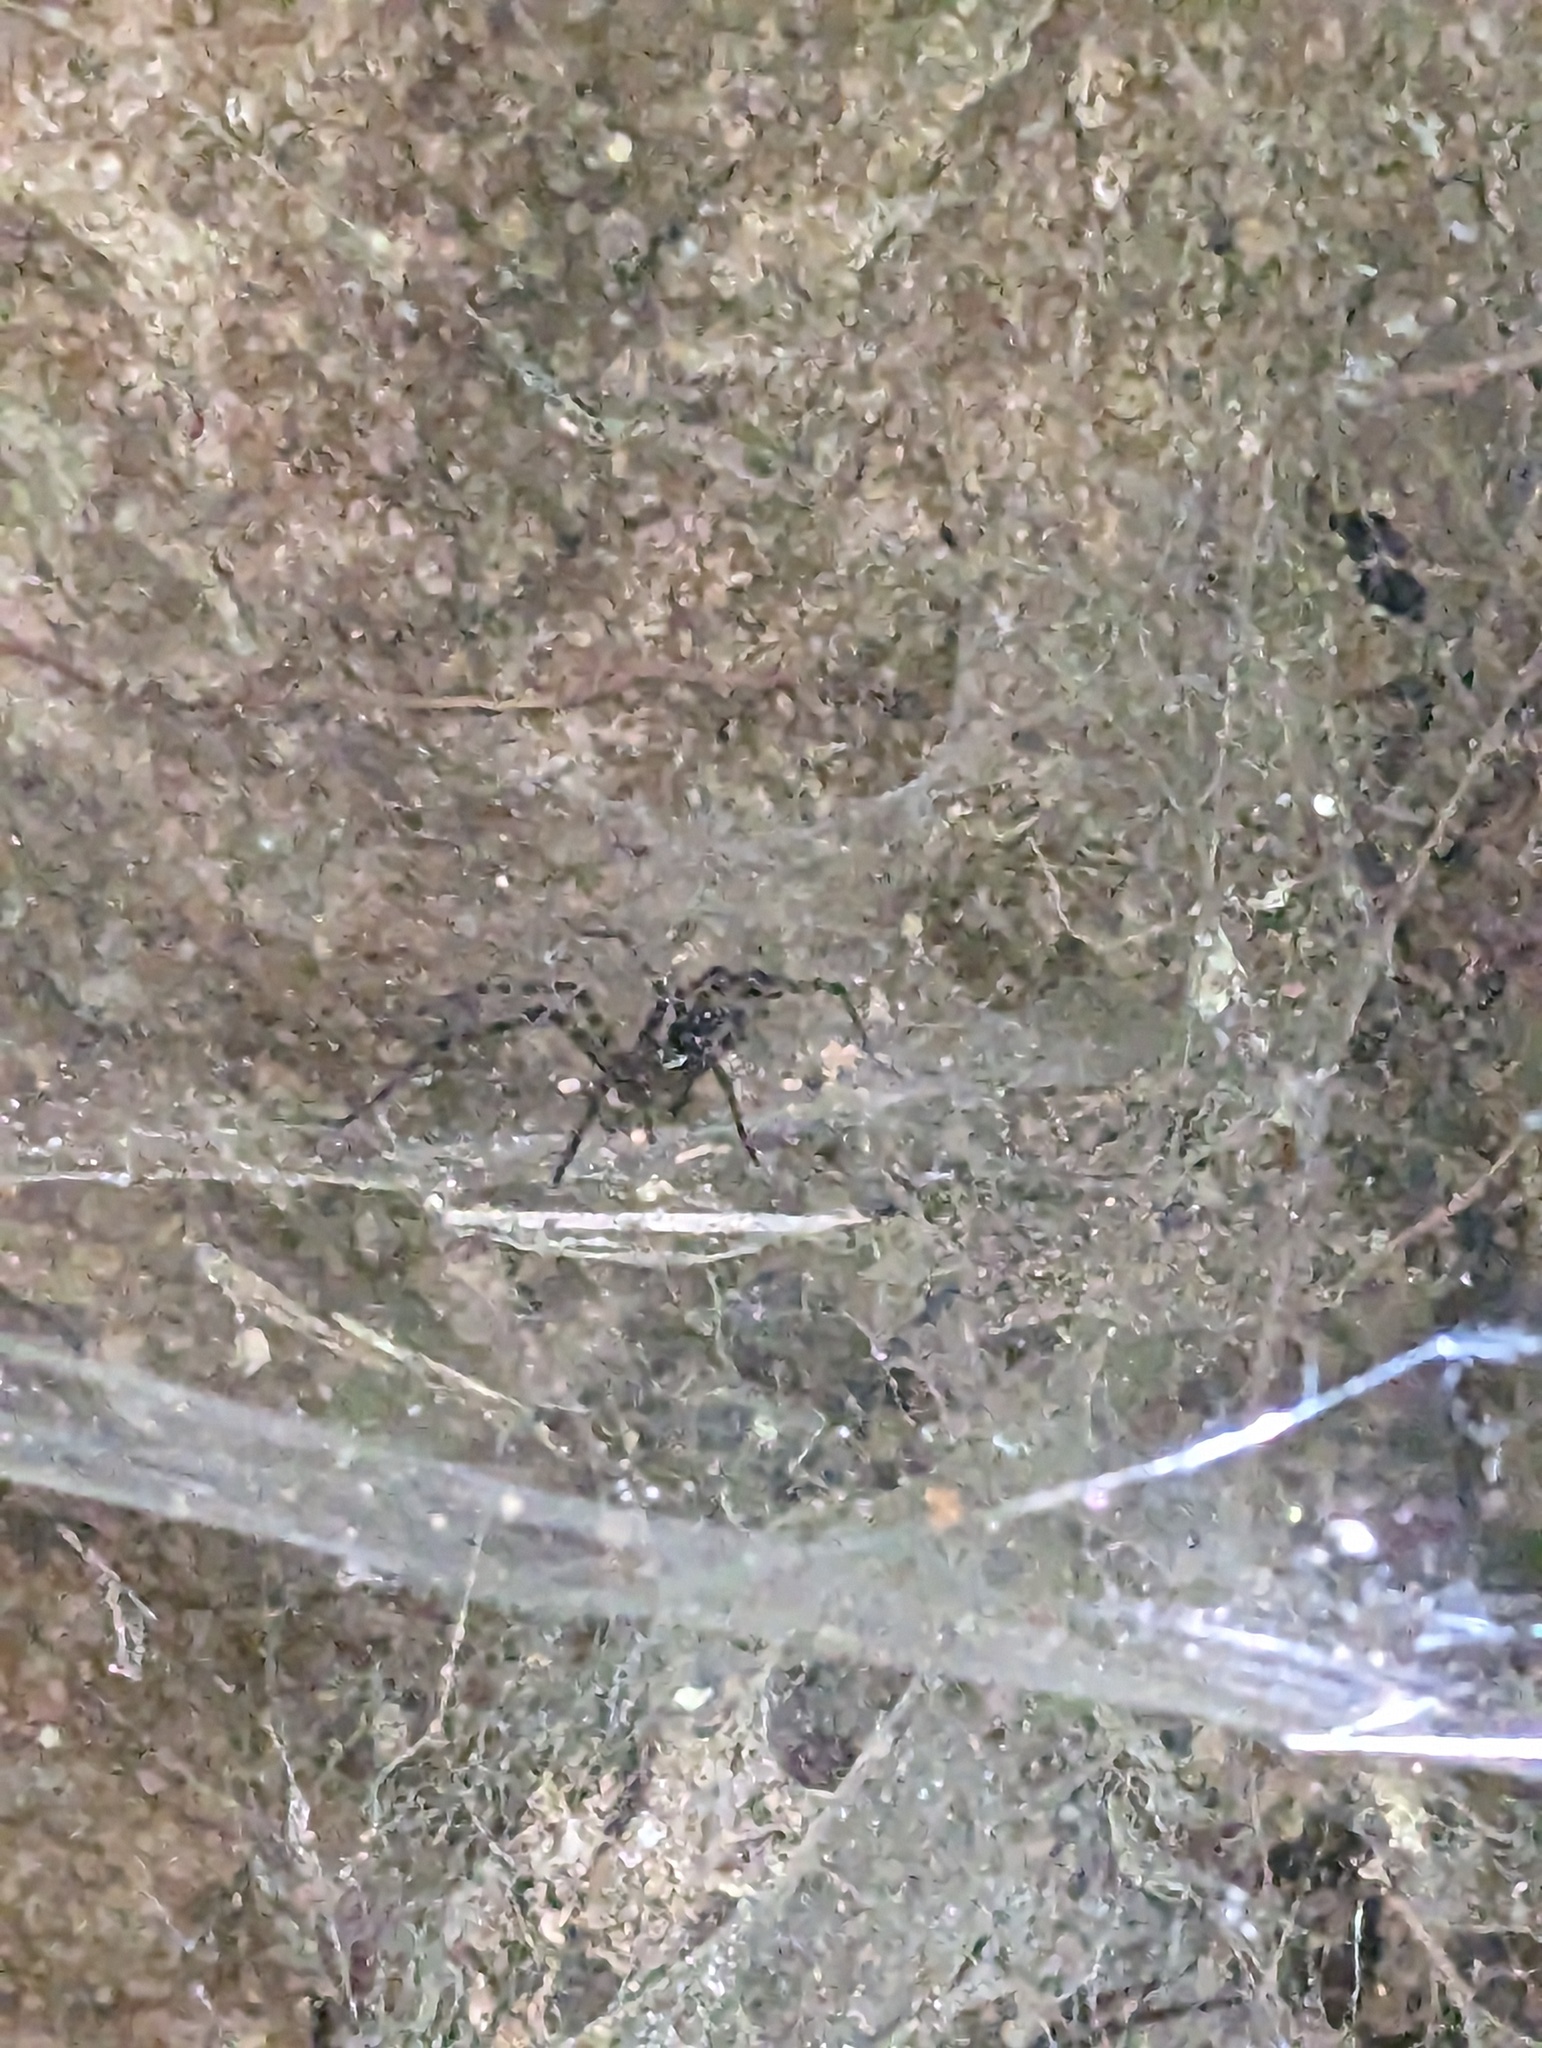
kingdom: Animalia
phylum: Arthropoda
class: Arachnida
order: Araneae
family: Zoropsidae
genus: Tengella
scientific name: Tengella radiata
